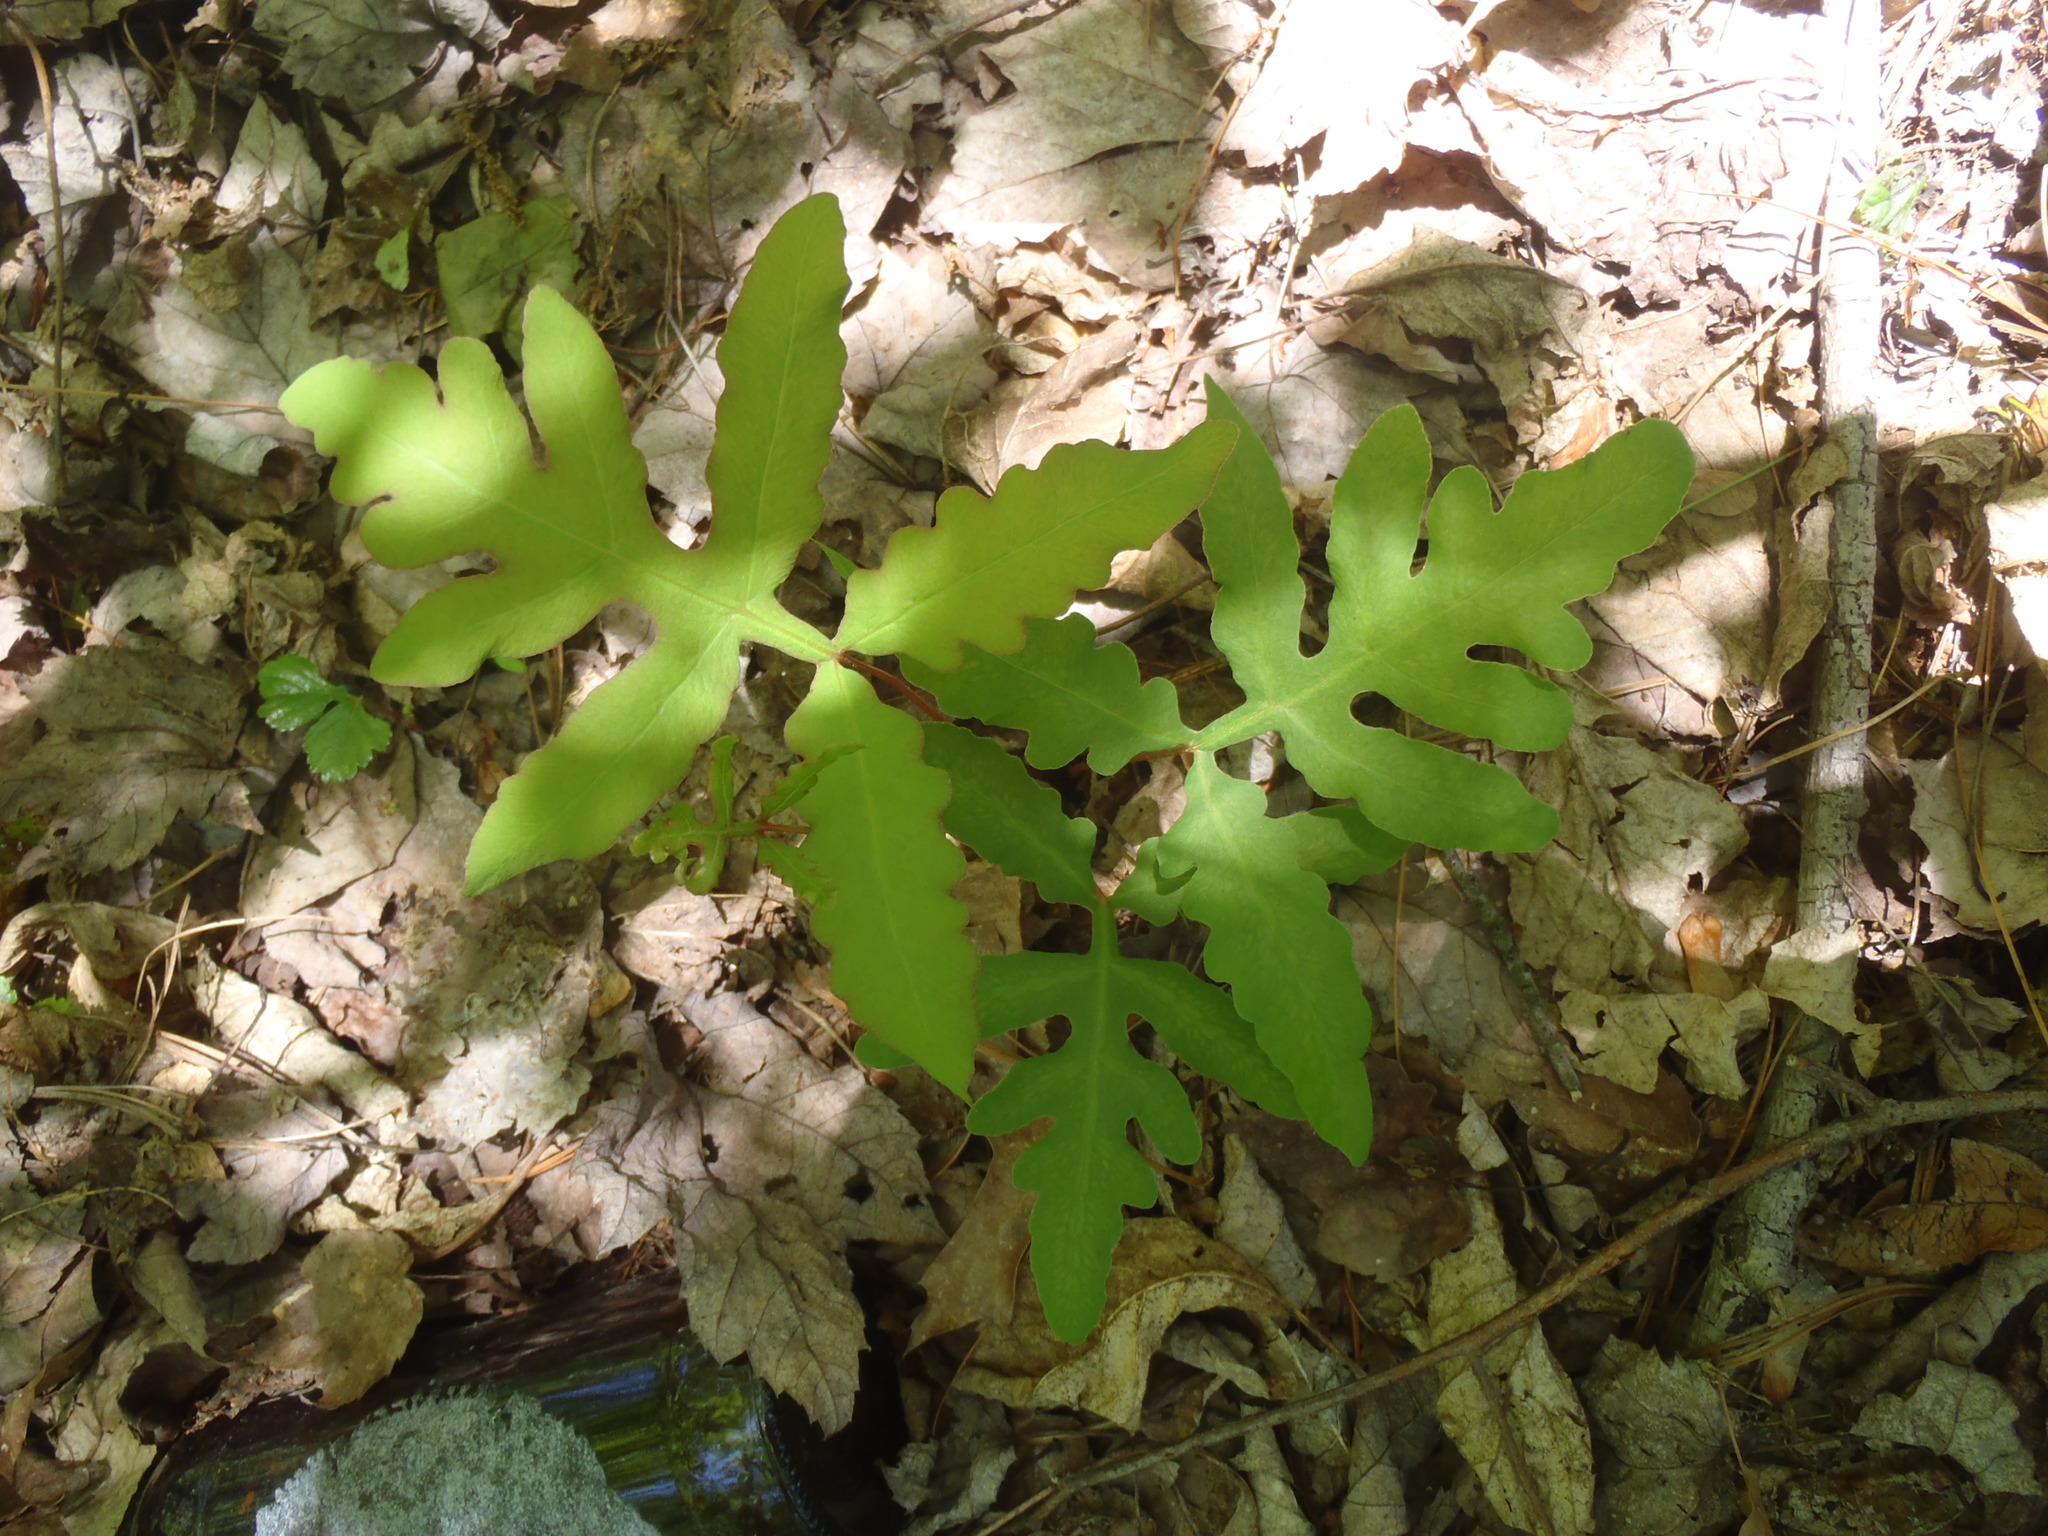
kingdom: Plantae
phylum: Tracheophyta
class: Polypodiopsida
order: Polypodiales
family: Onocleaceae
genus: Onoclea
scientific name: Onoclea sensibilis
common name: Sensitive fern
